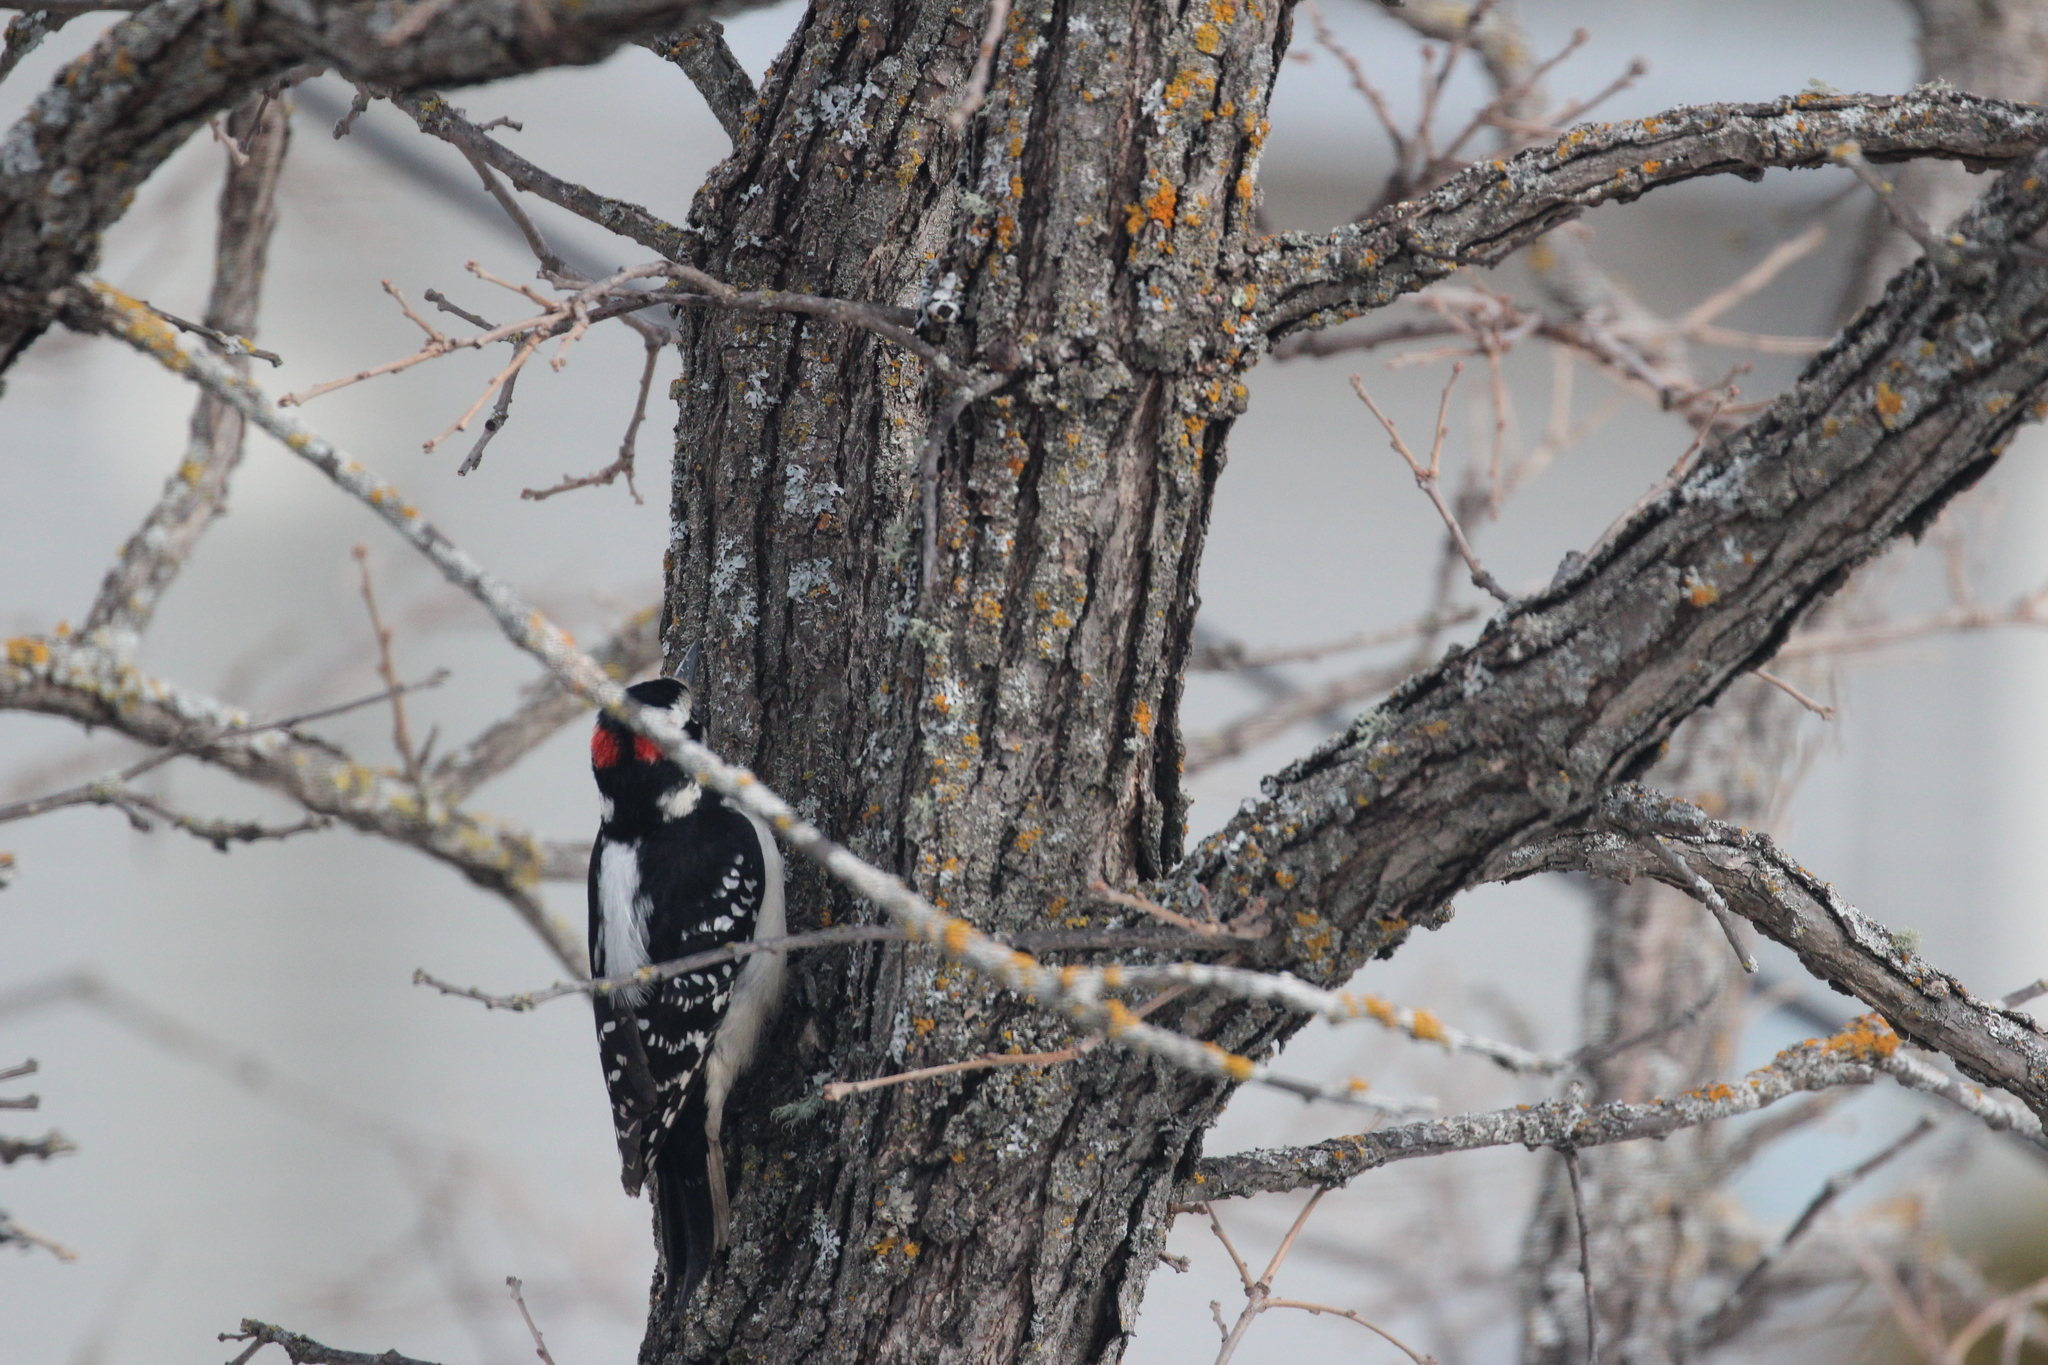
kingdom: Animalia
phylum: Chordata
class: Aves
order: Piciformes
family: Picidae
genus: Leuconotopicus
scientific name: Leuconotopicus villosus
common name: Hairy woodpecker
